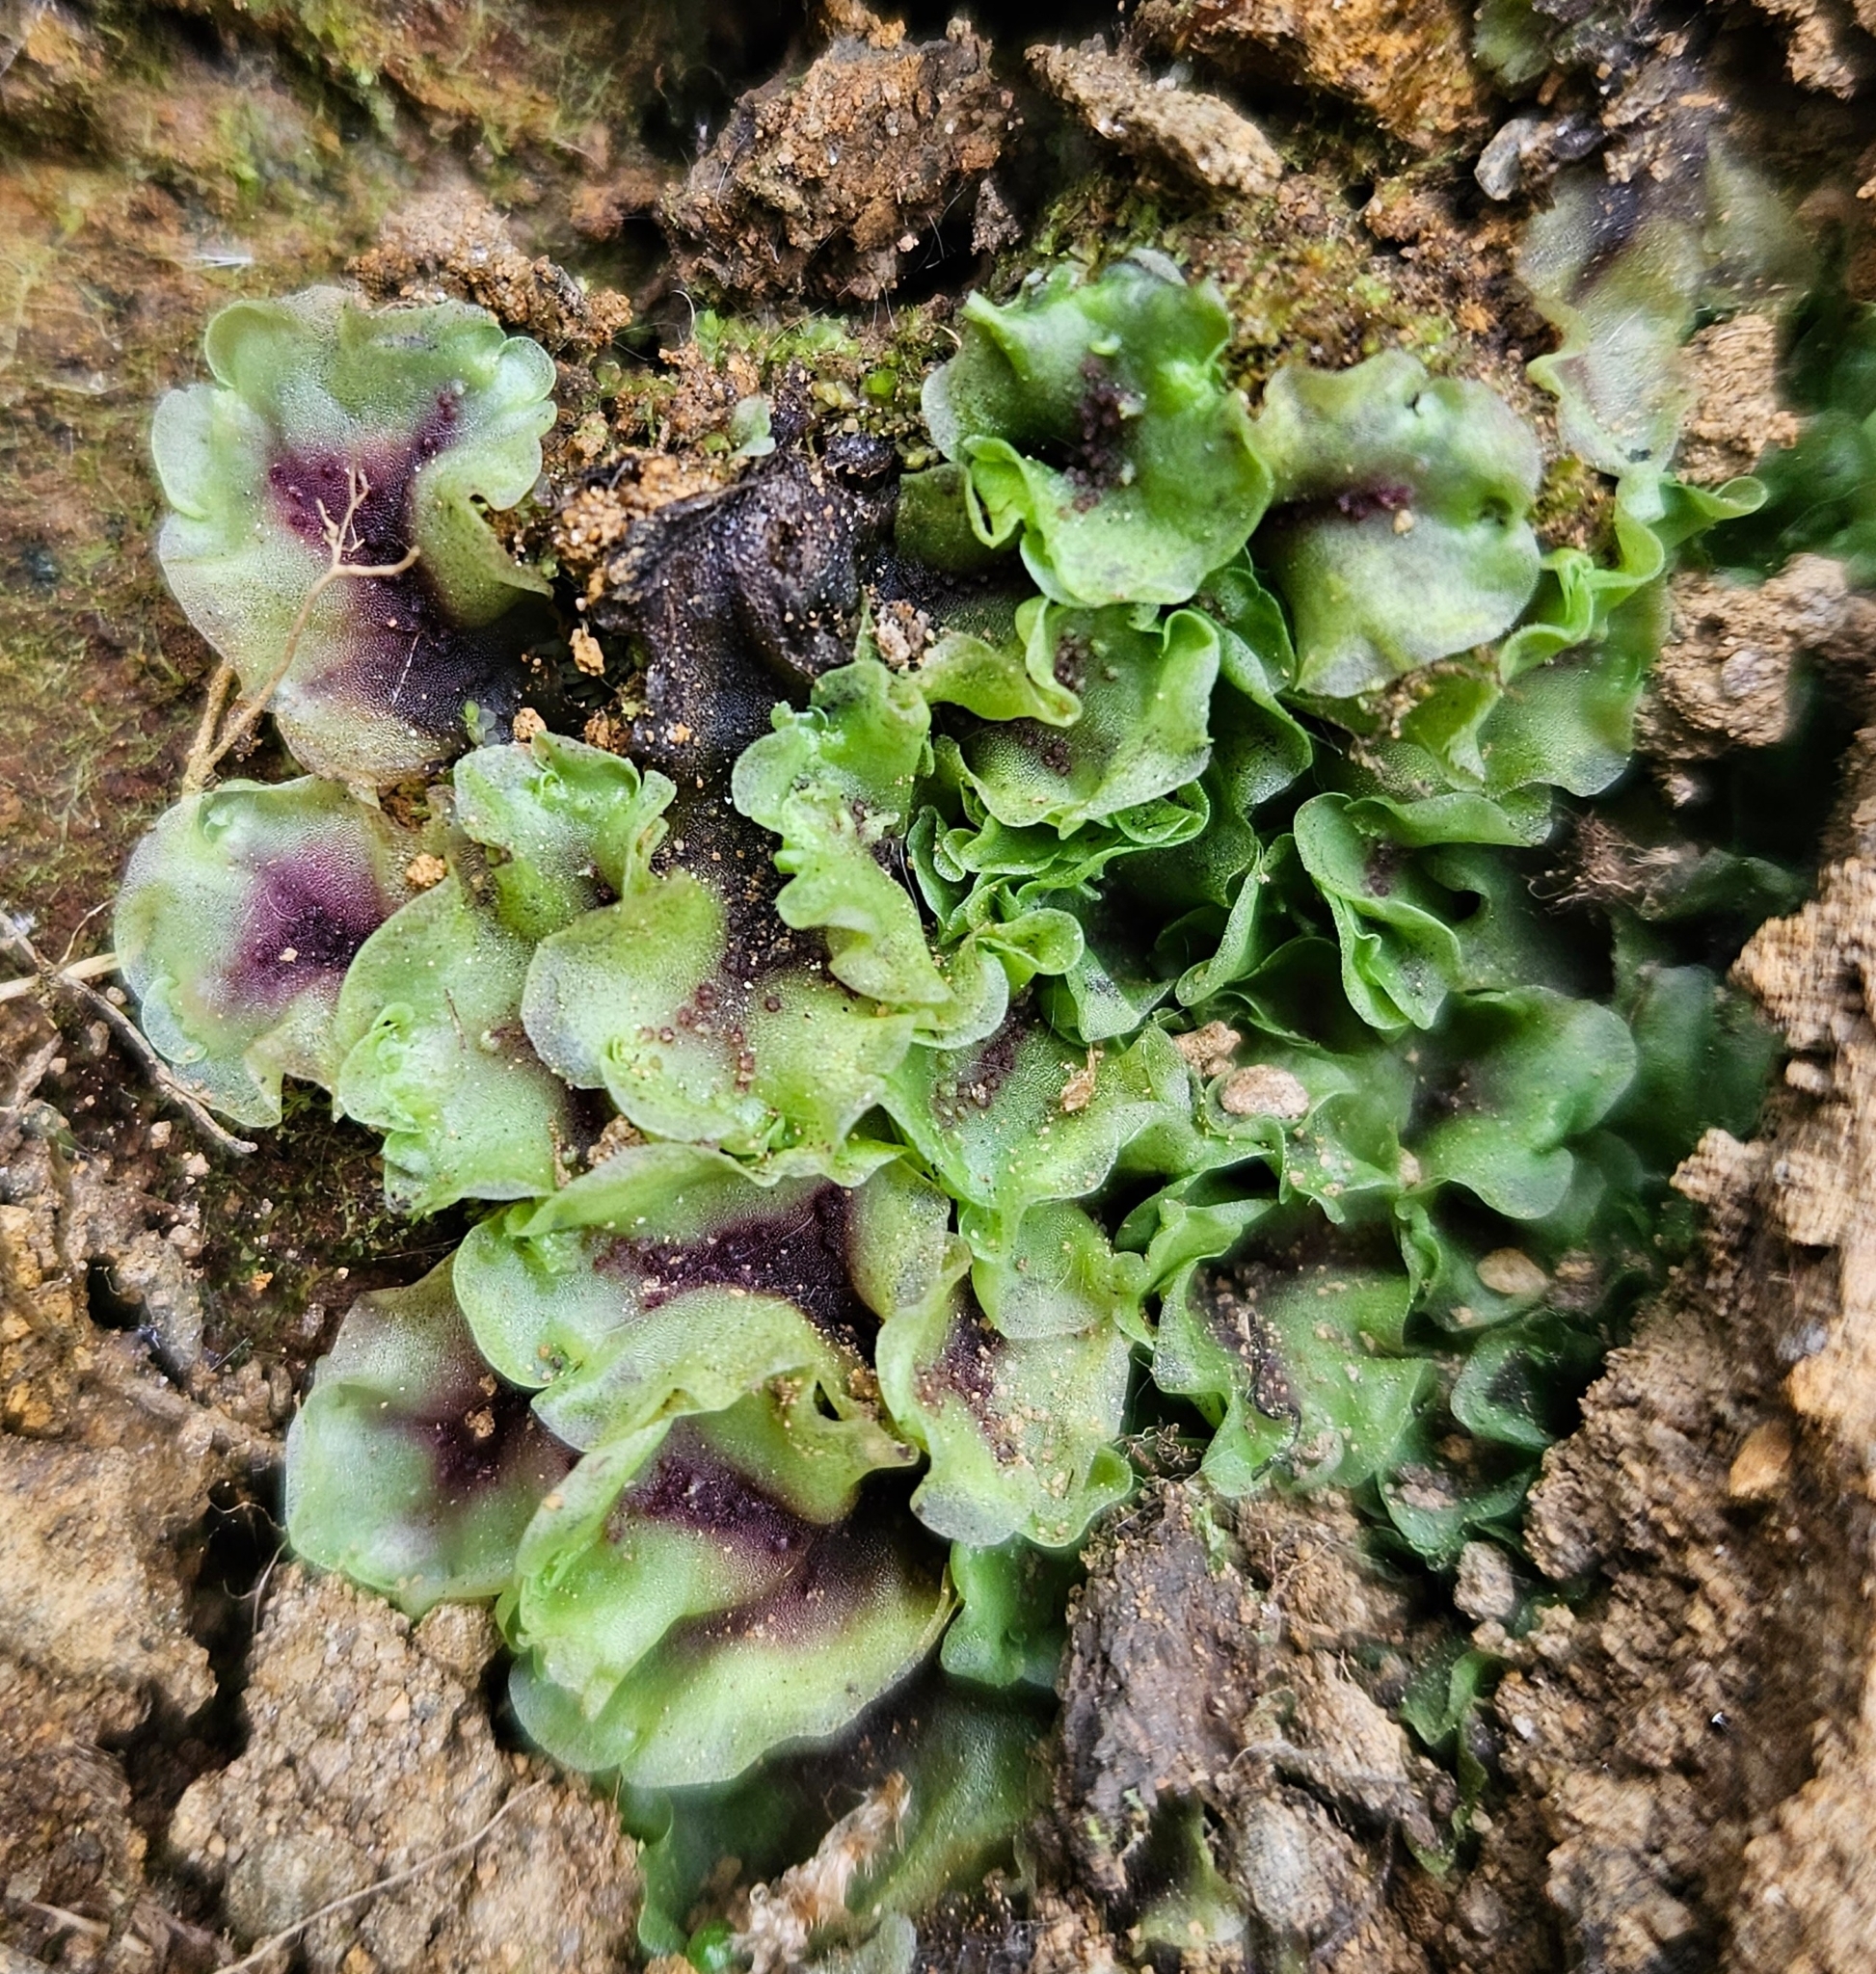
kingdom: Plantae
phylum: Marchantiophyta
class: Jungermanniopsida
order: Pelliales
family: Pelliaceae
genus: Pellia
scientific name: Pellia neesiana
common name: Nees  pellia
